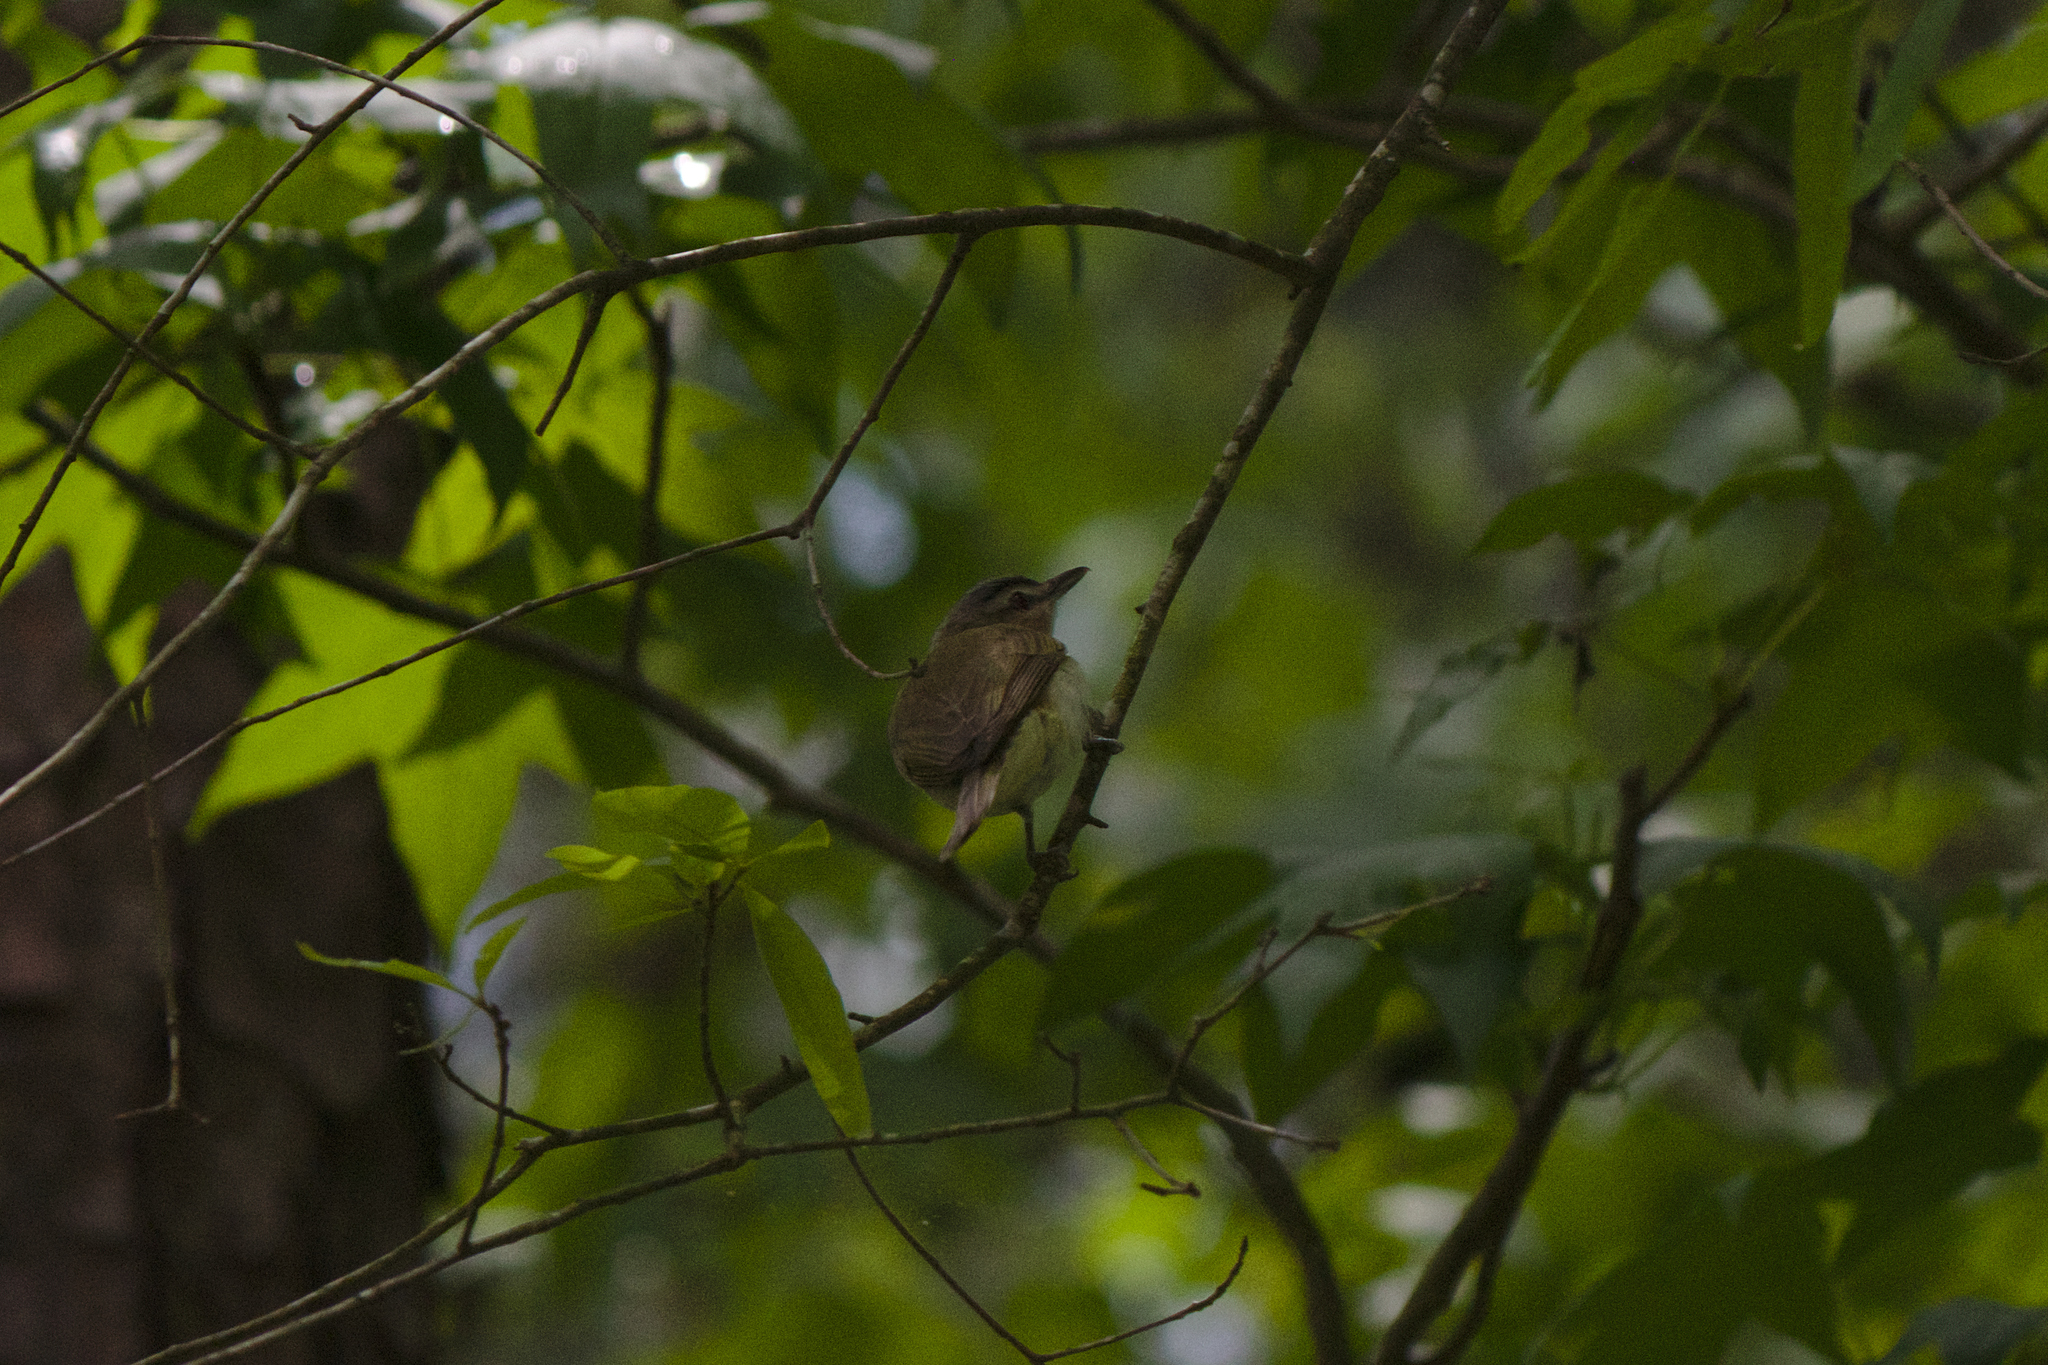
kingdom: Animalia
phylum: Chordata
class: Aves
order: Passeriformes
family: Vireonidae
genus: Vireo
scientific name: Vireo olivaceus
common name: Red-eyed vireo
